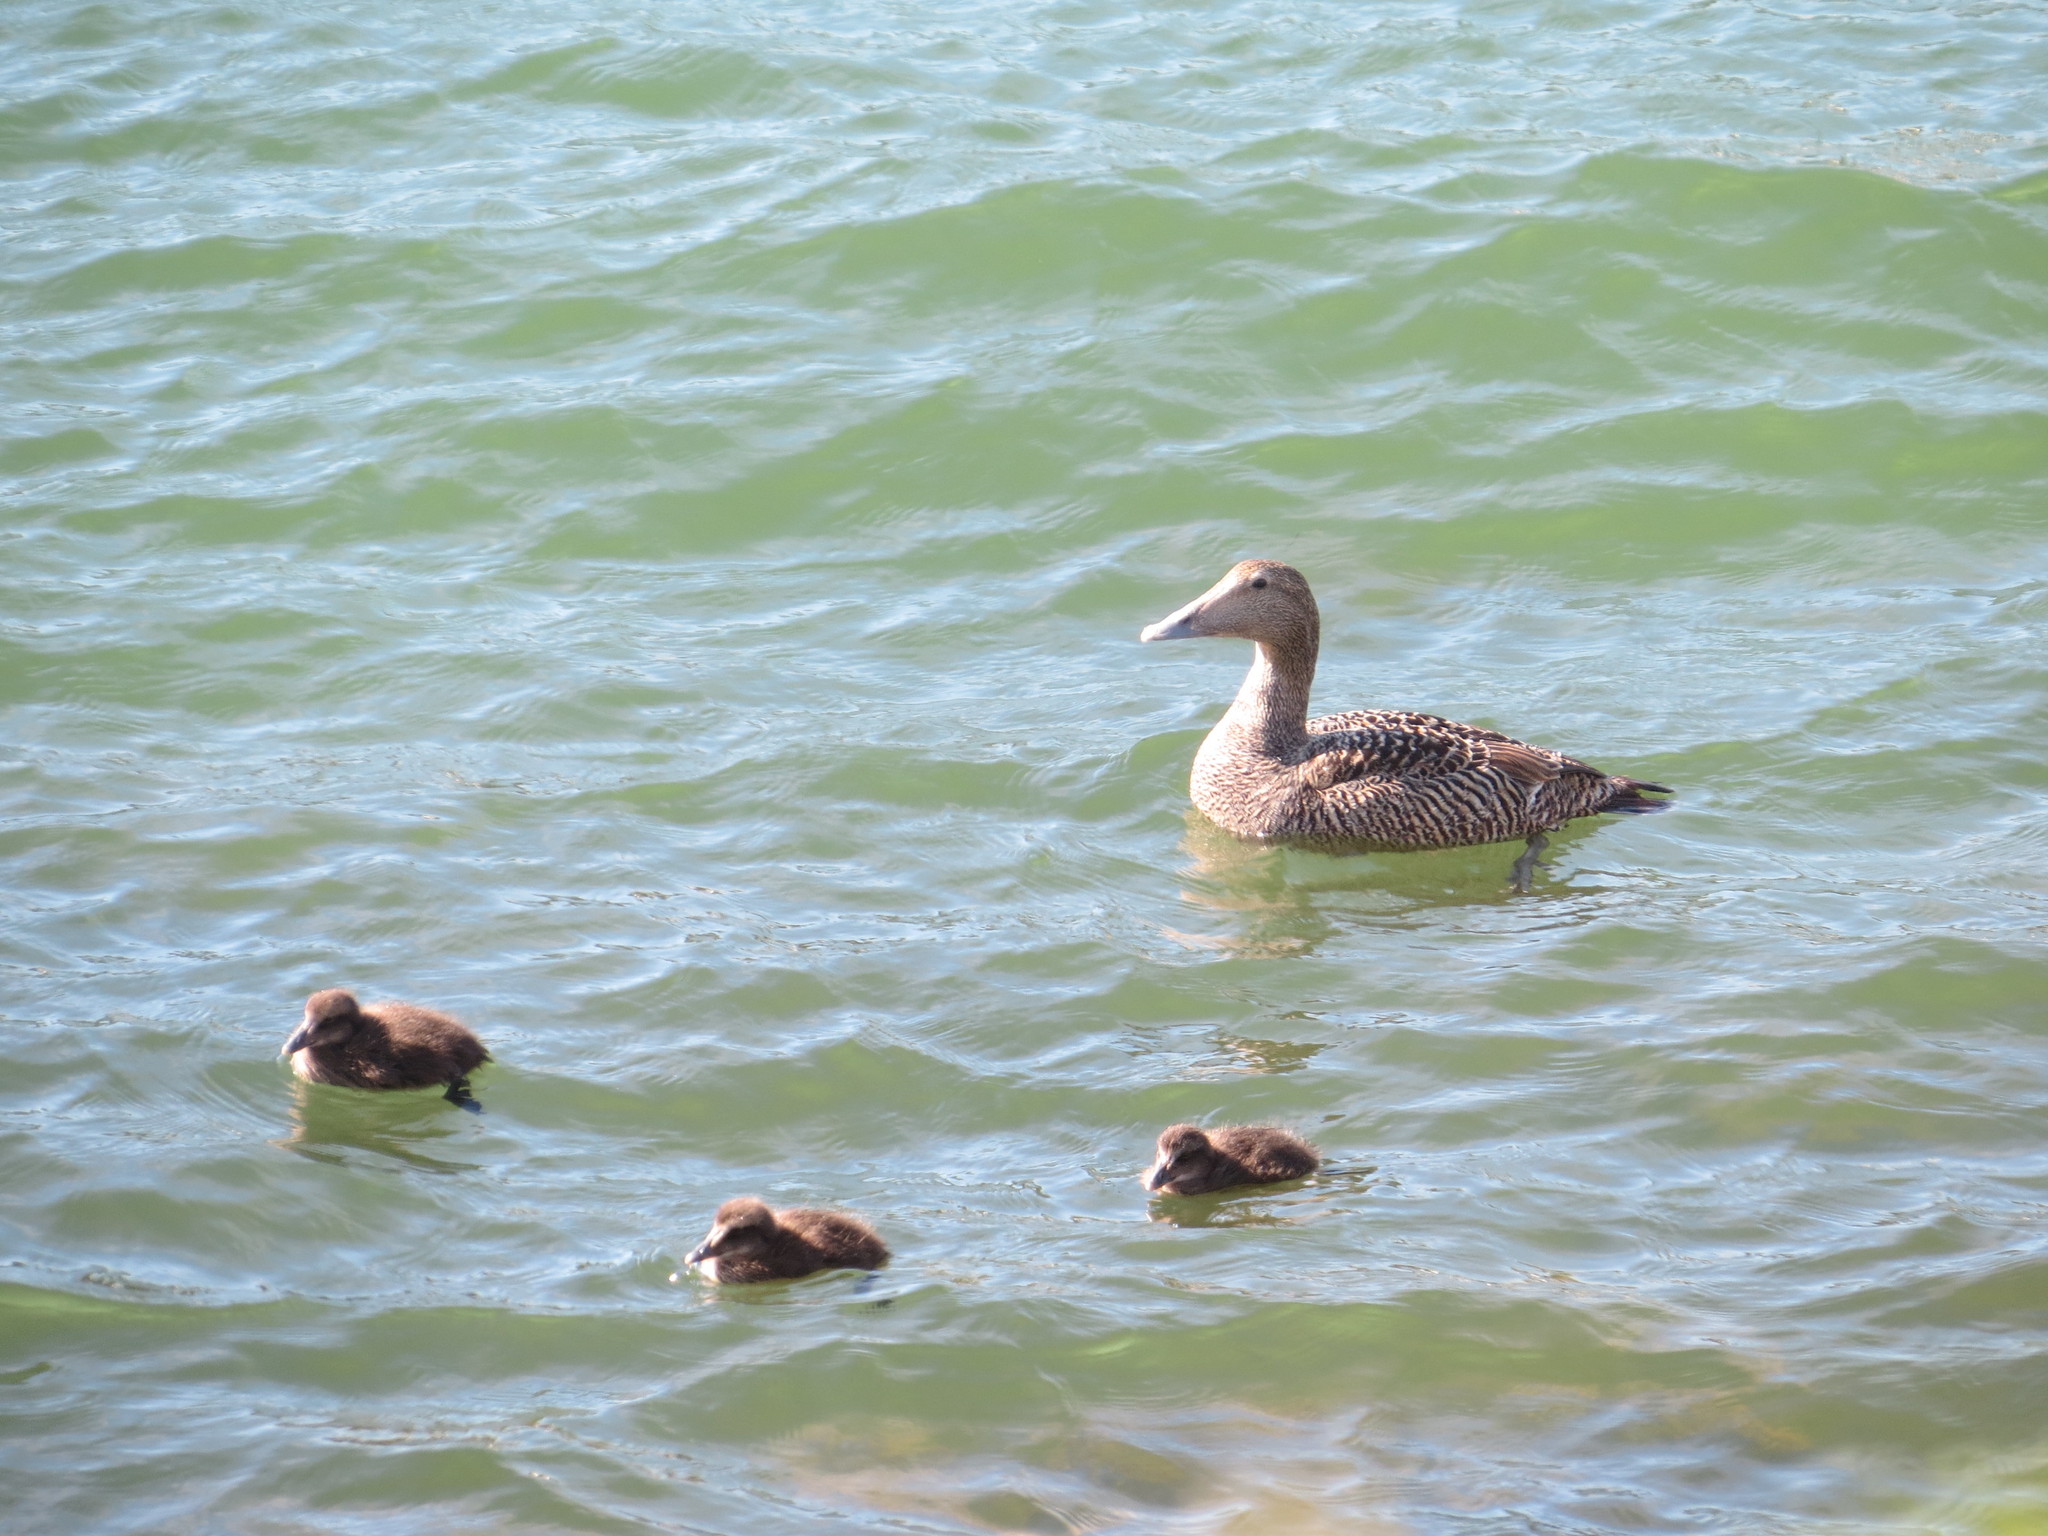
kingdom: Animalia
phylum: Chordata
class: Aves
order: Anseriformes
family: Anatidae
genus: Somateria
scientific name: Somateria mollissima
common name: Common eider
